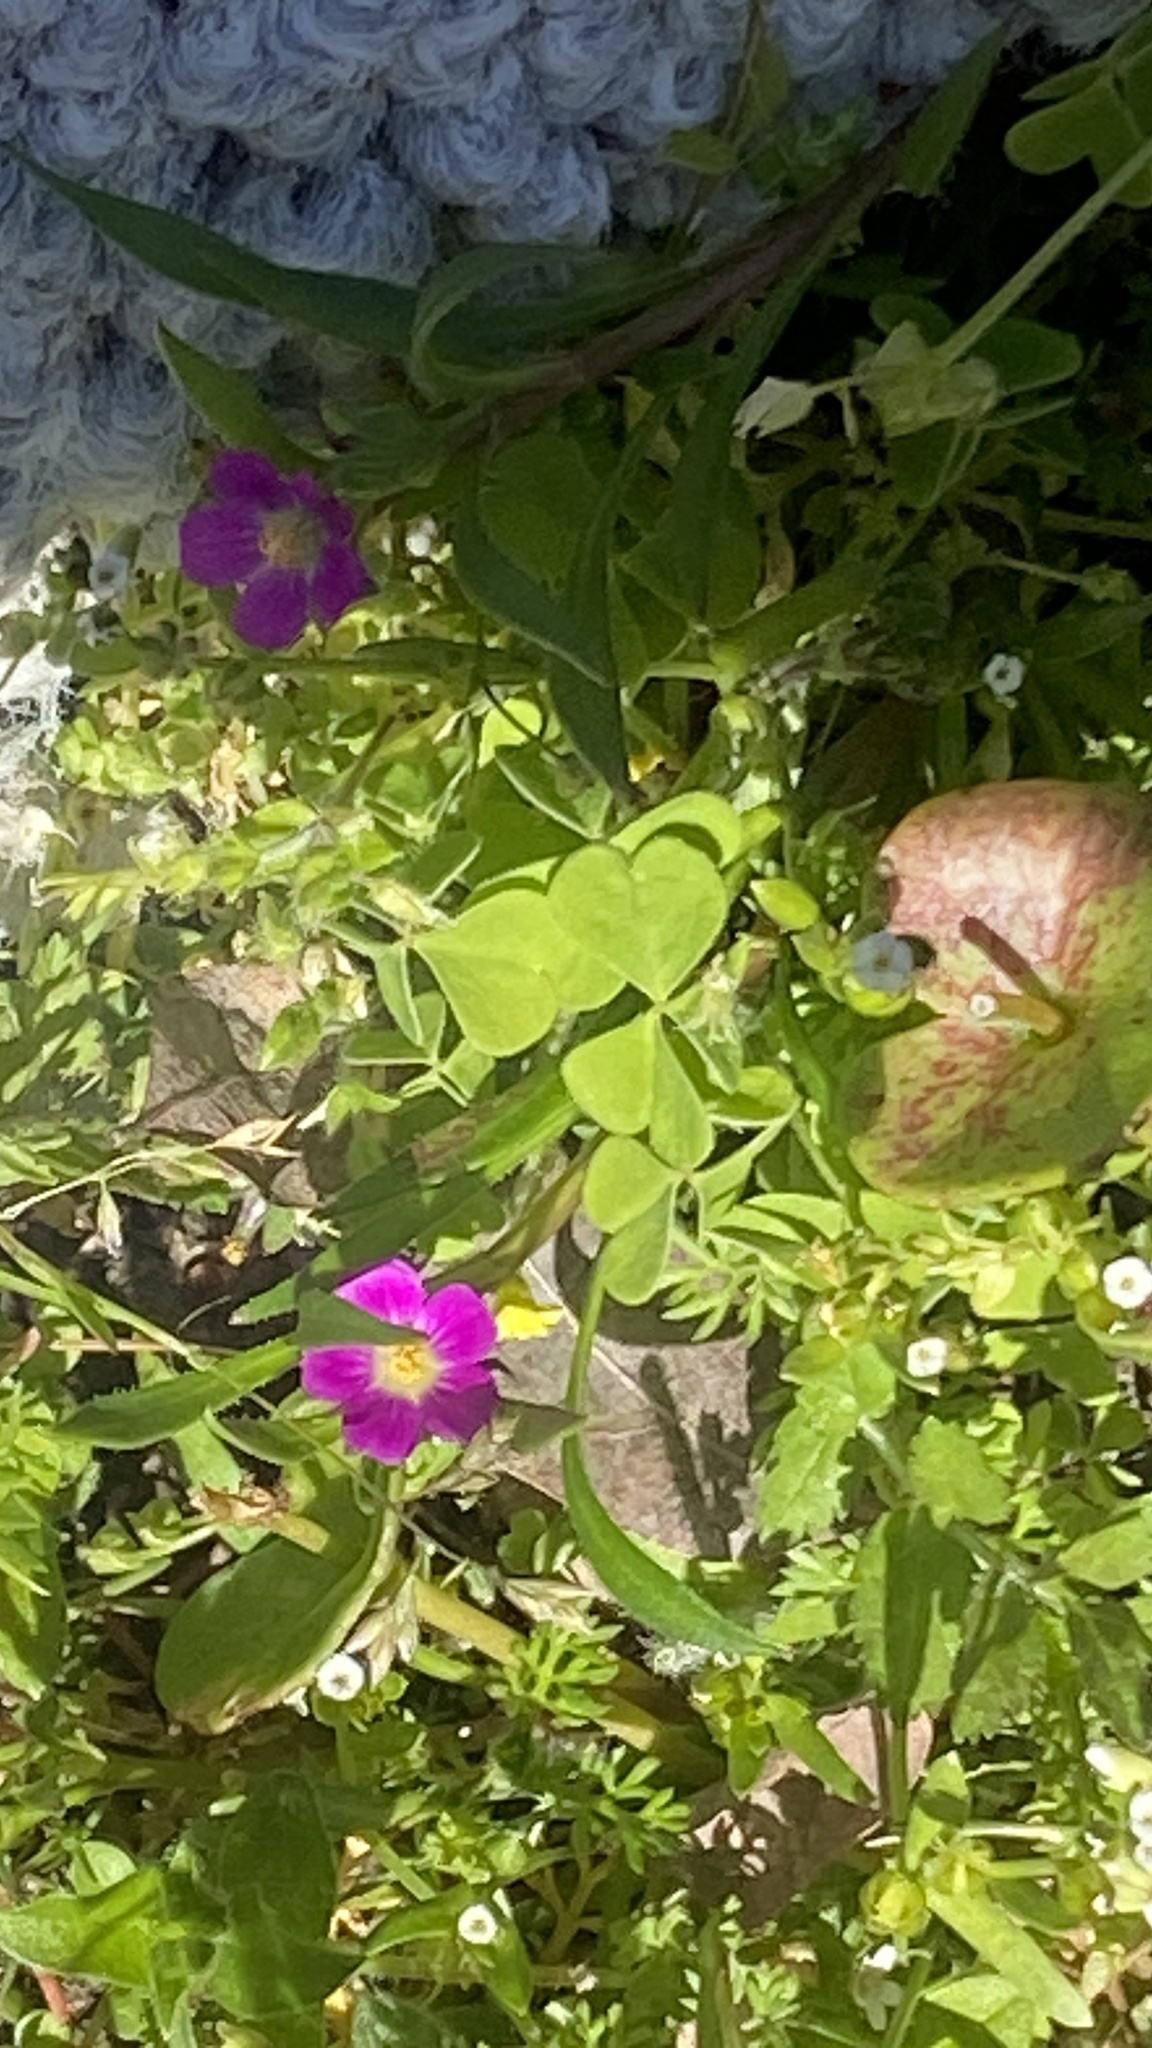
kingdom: Plantae
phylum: Tracheophyta
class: Magnoliopsida
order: Caryophyllales
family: Montiaceae
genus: Calandrinia
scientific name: Calandrinia menziesii
